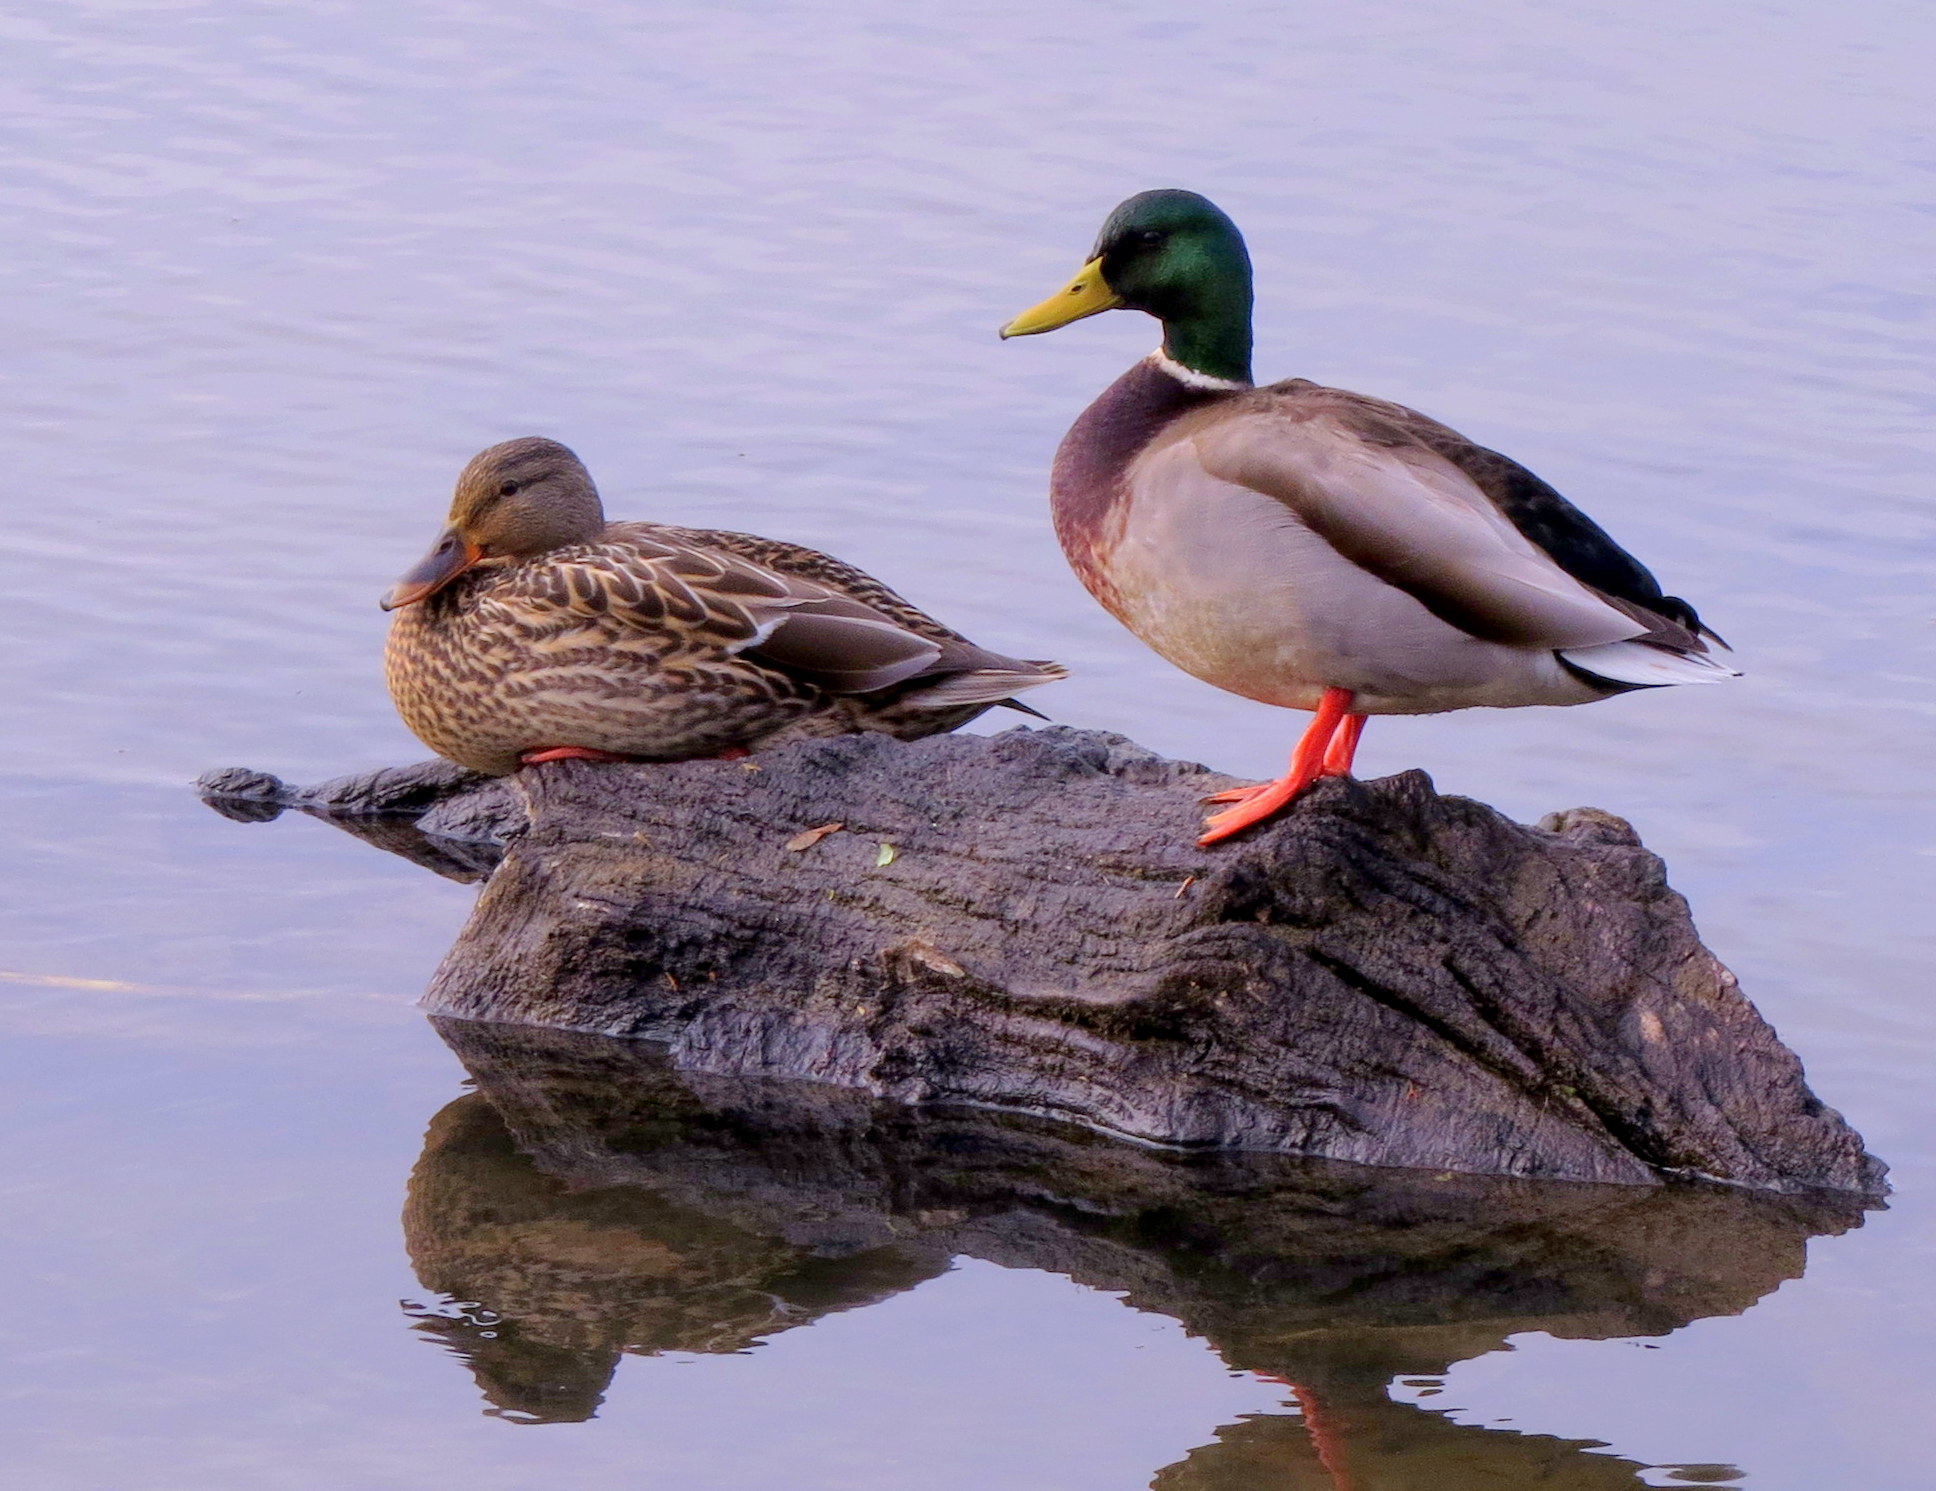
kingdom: Animalia
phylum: Chordata
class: Aves
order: Anseriformes
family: Anatidae
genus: Anas
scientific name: Anas platyrhynchos
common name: Mallard
